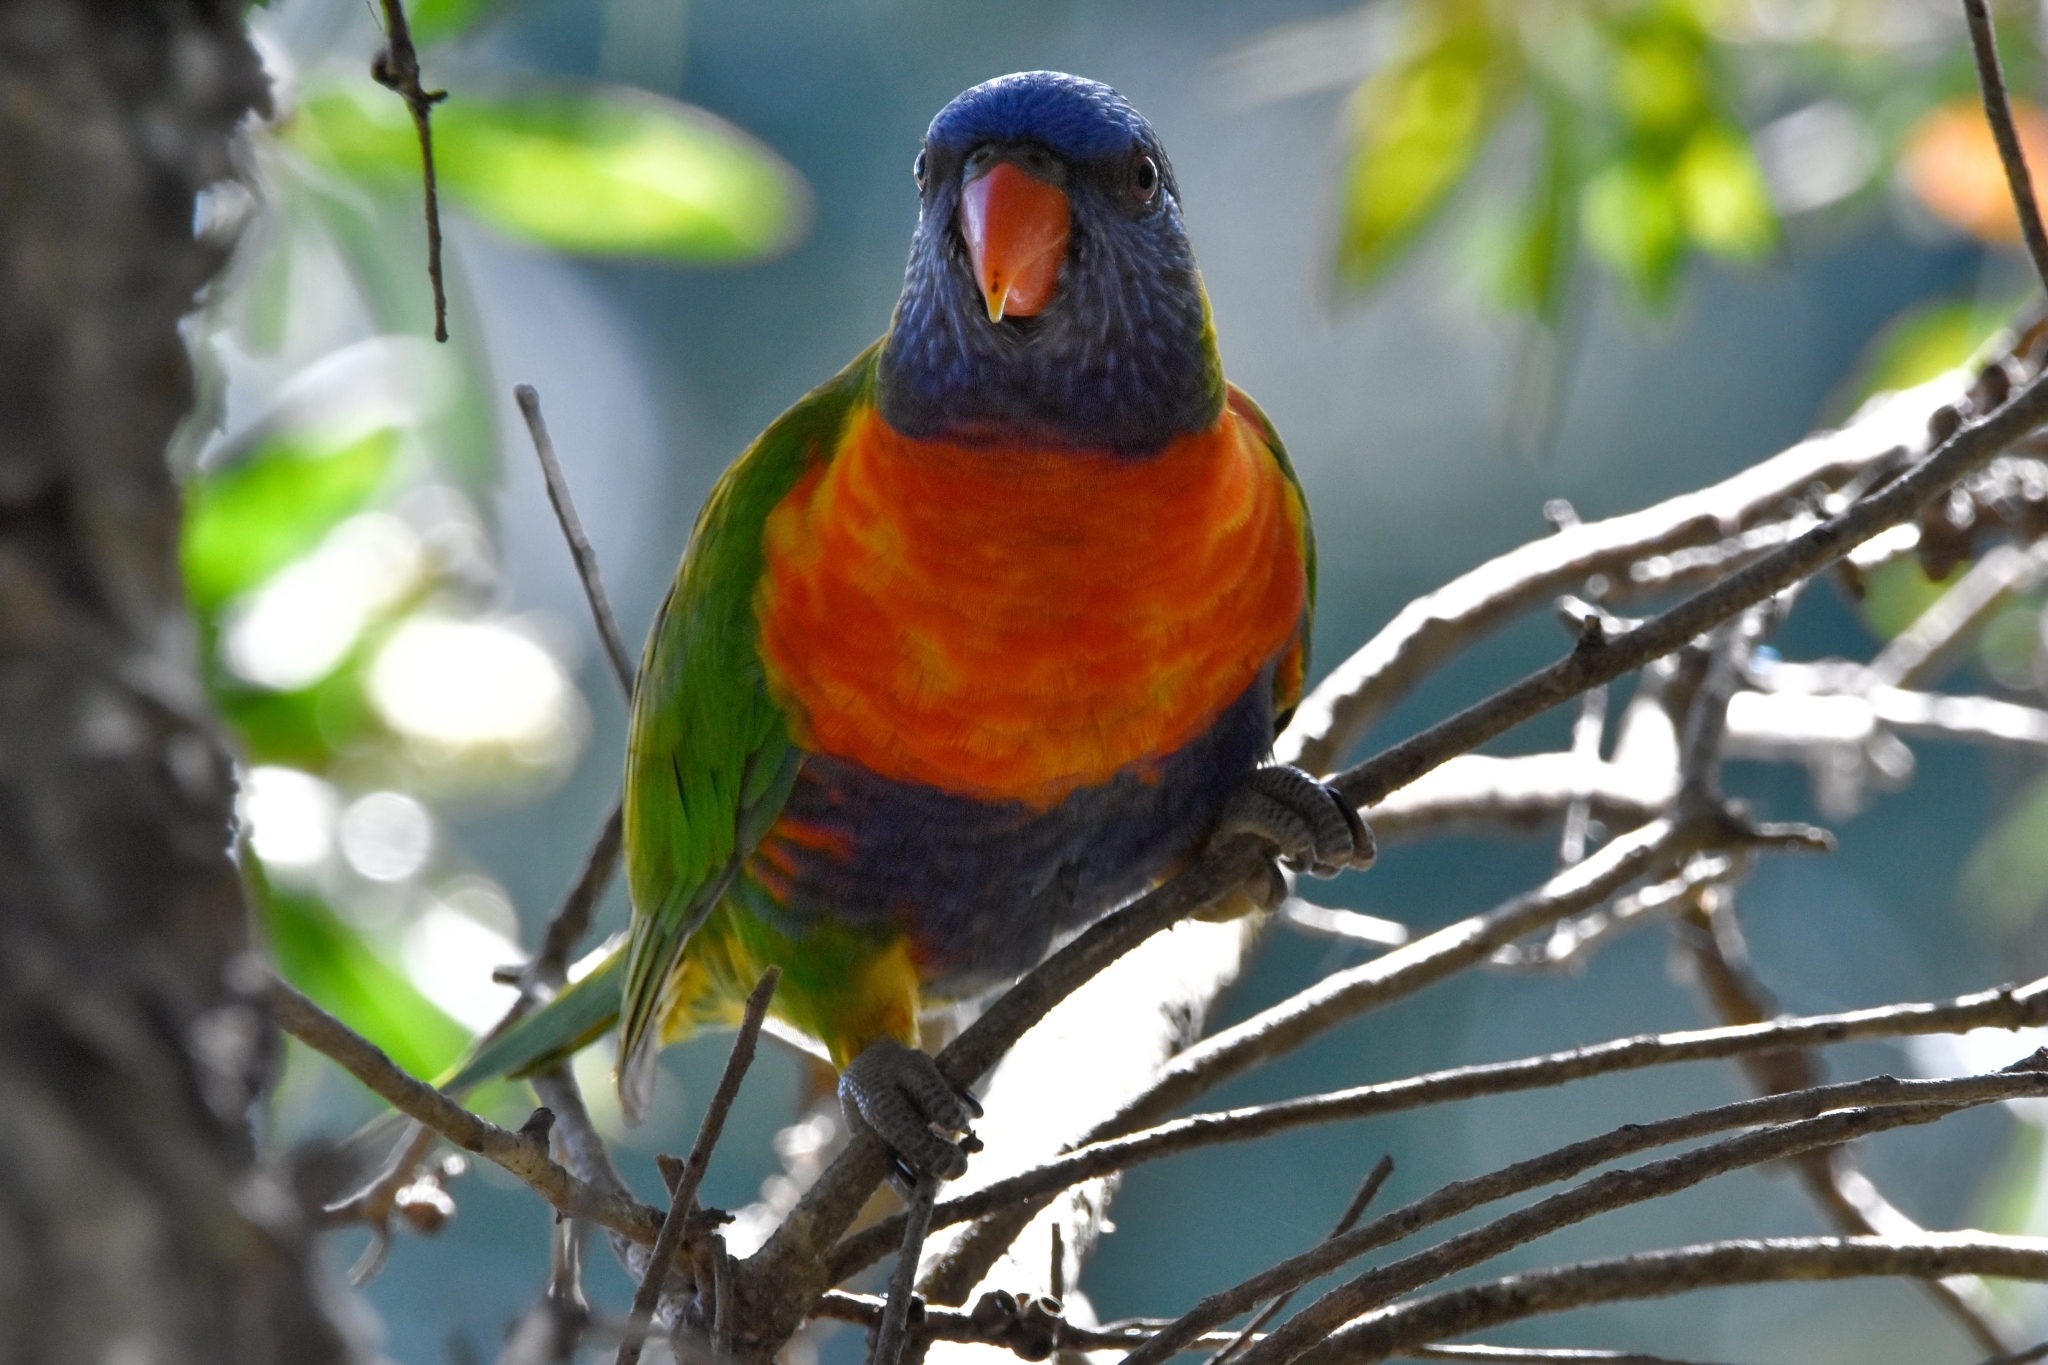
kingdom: Animalia
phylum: Chordata
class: Aves
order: Psittaciformes
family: Psittacidae
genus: Trichoglossus
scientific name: Trichoglossus haematodus
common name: Coconut lorikeet
